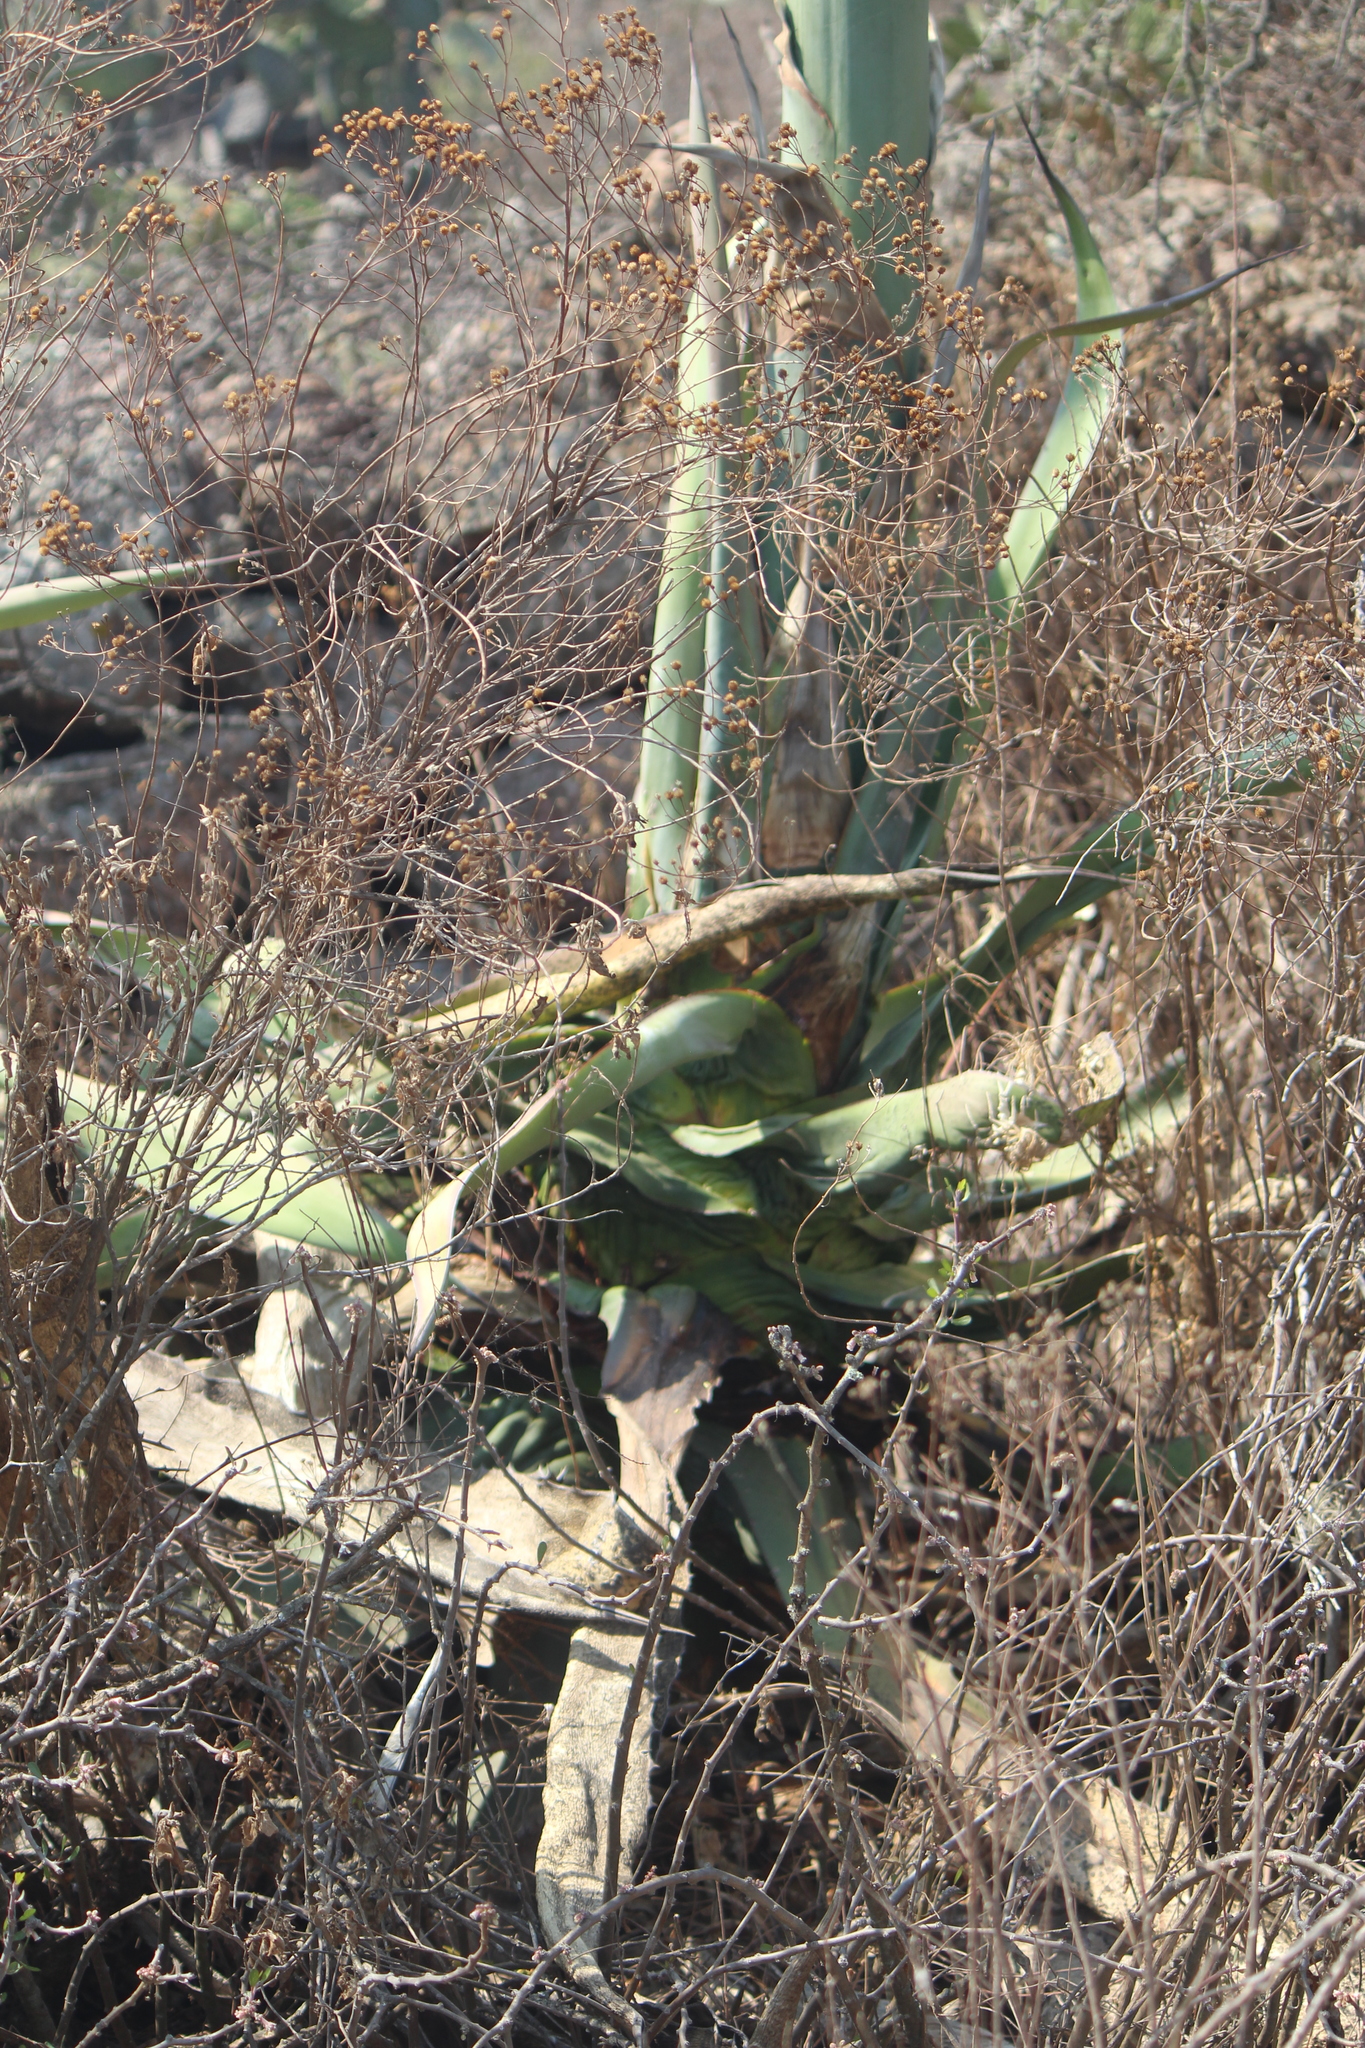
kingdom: Plantae
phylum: Tracheophyta
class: Liliopsida
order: Asparagales
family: Asparagaceae
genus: Agave
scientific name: Agave salmiana
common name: Pulque agave
